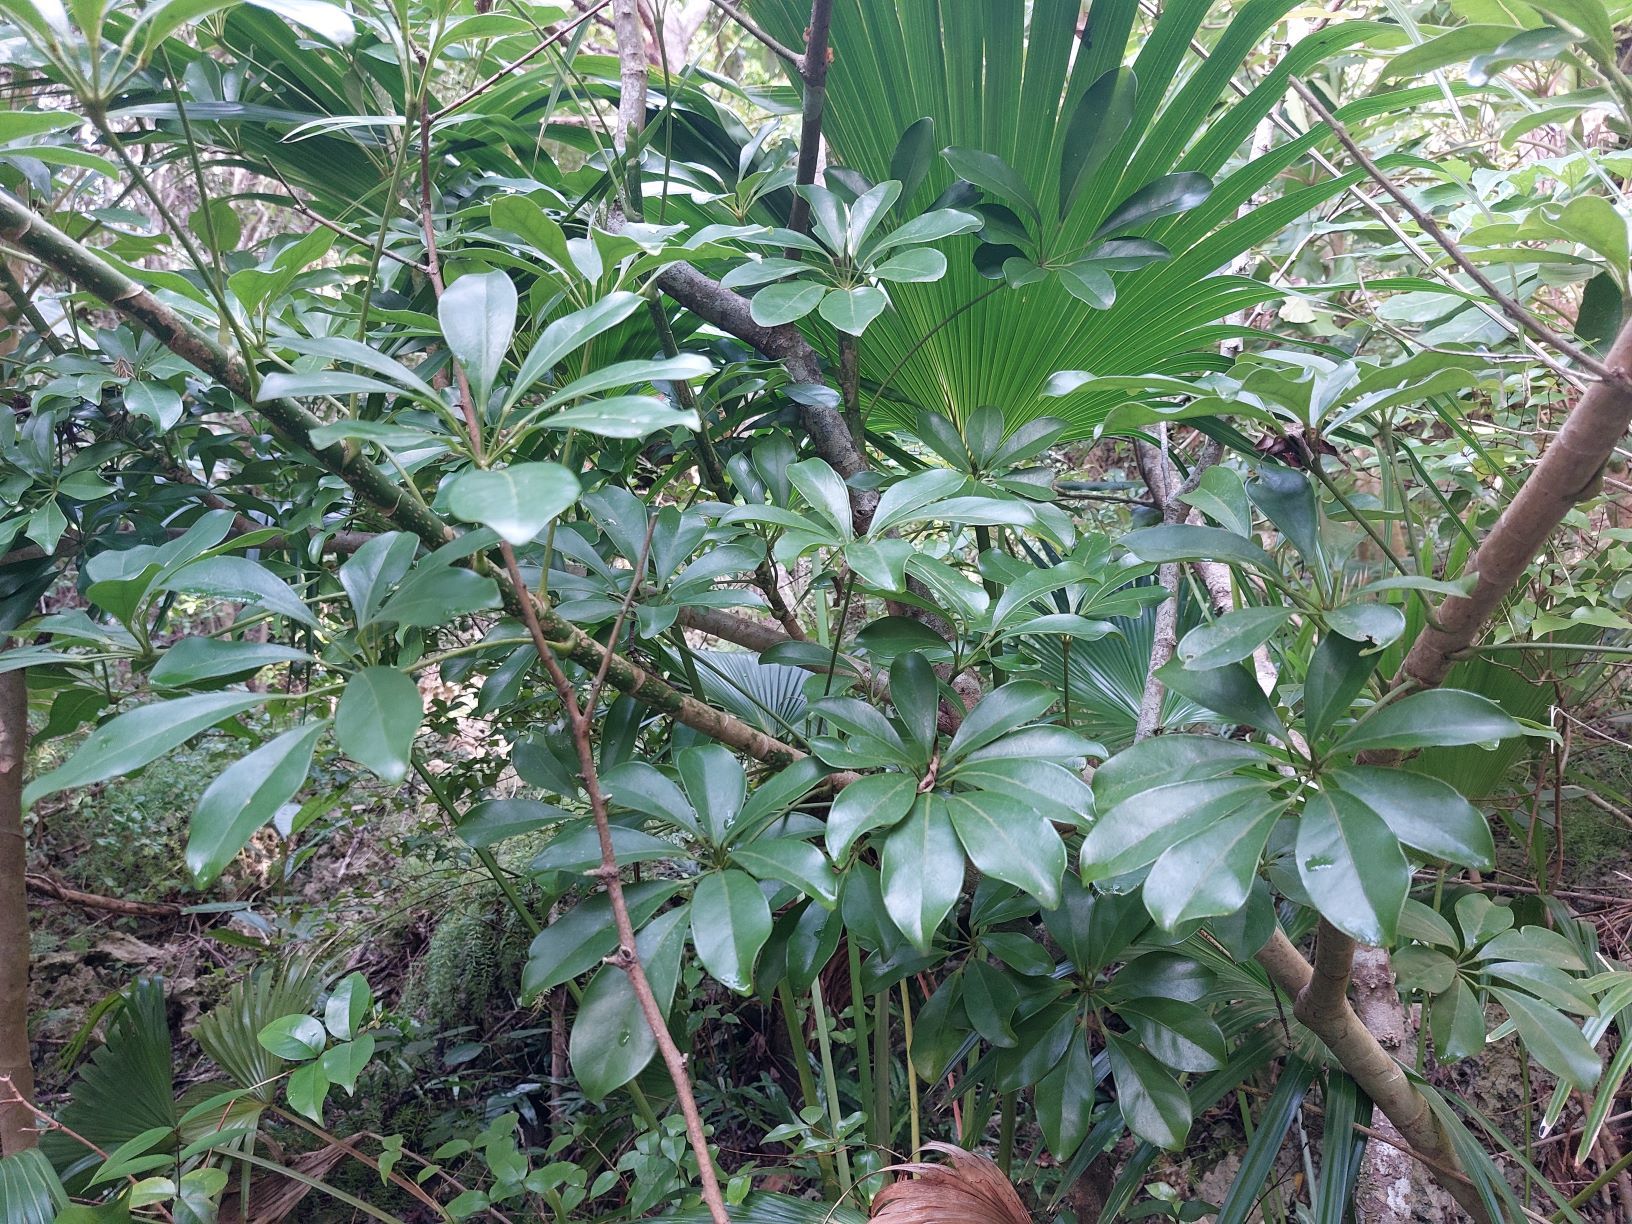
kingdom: Plantae
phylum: Tracheophyta
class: Magnoliopsida
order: Apiales
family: Araliaceae
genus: Heptapleurum
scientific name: Heptapleurum arboricola
